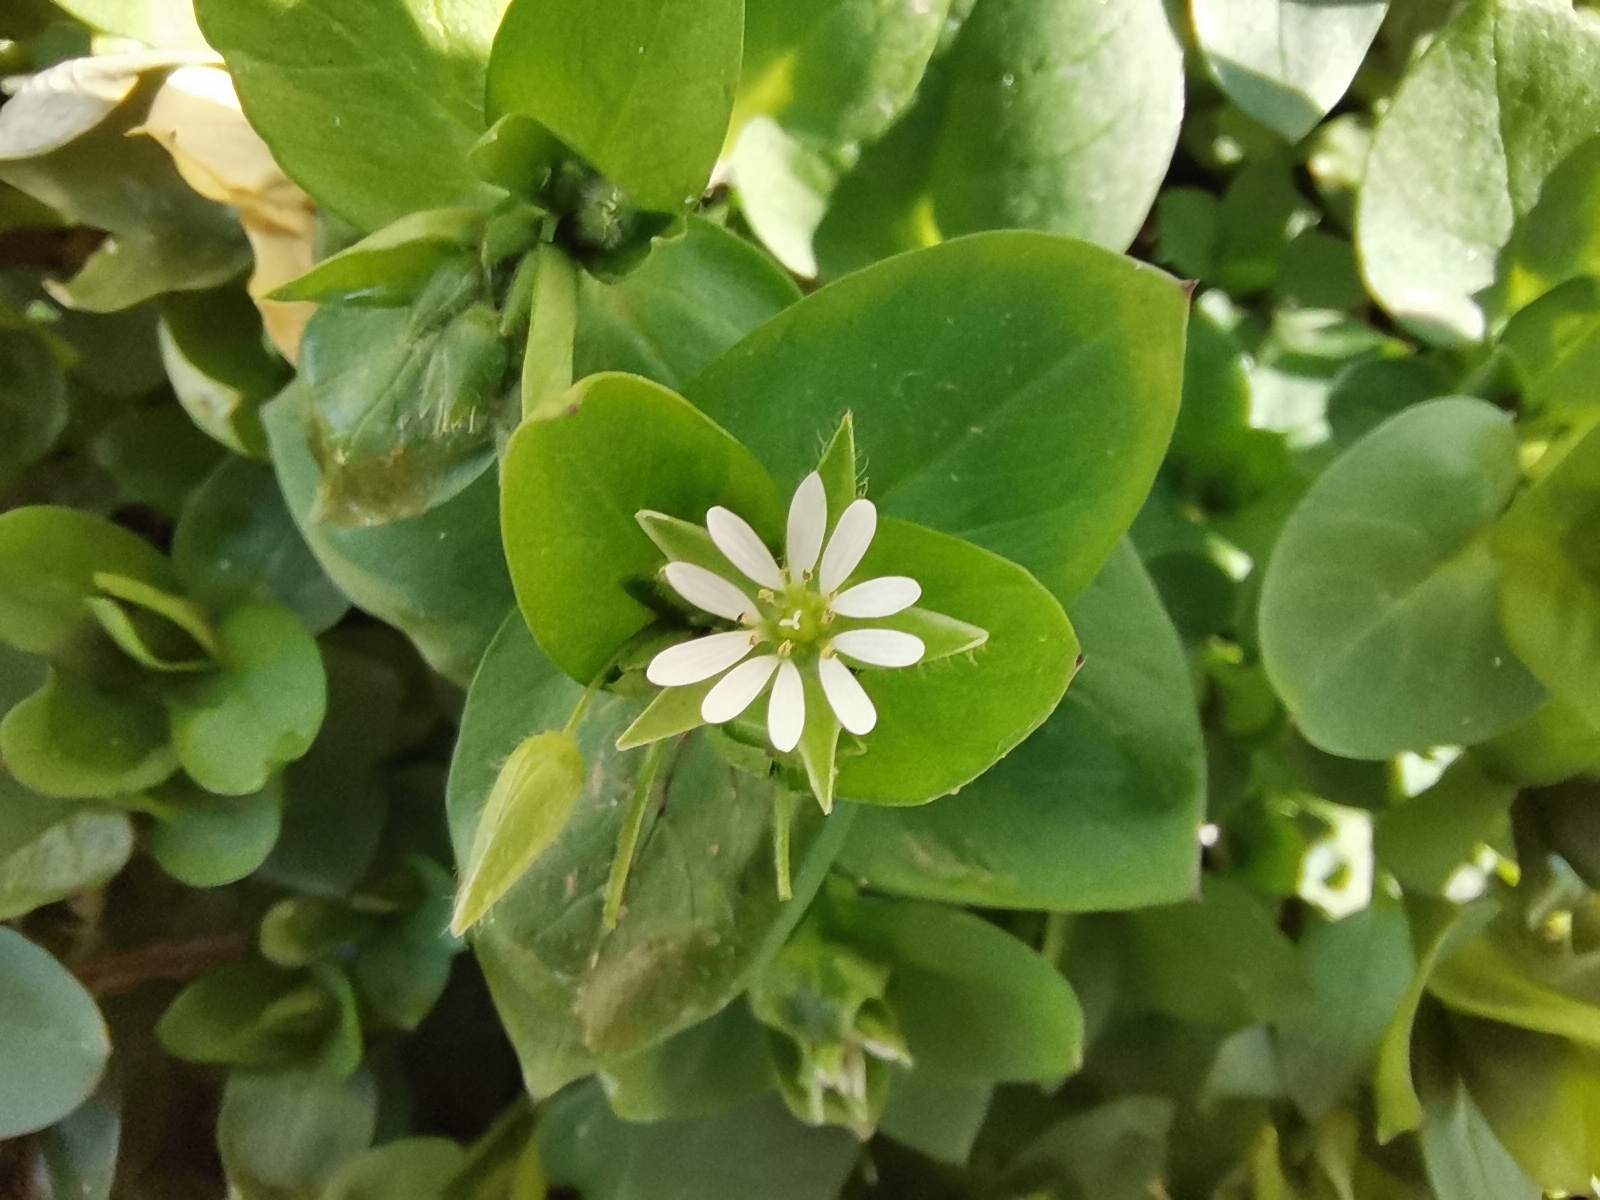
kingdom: Plantae
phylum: Tracheophyta
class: Magnoliopsida
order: Caryophyllales
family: Caryophyllaceae
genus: Stellaria
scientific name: Stellaria media
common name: Common chickweed
